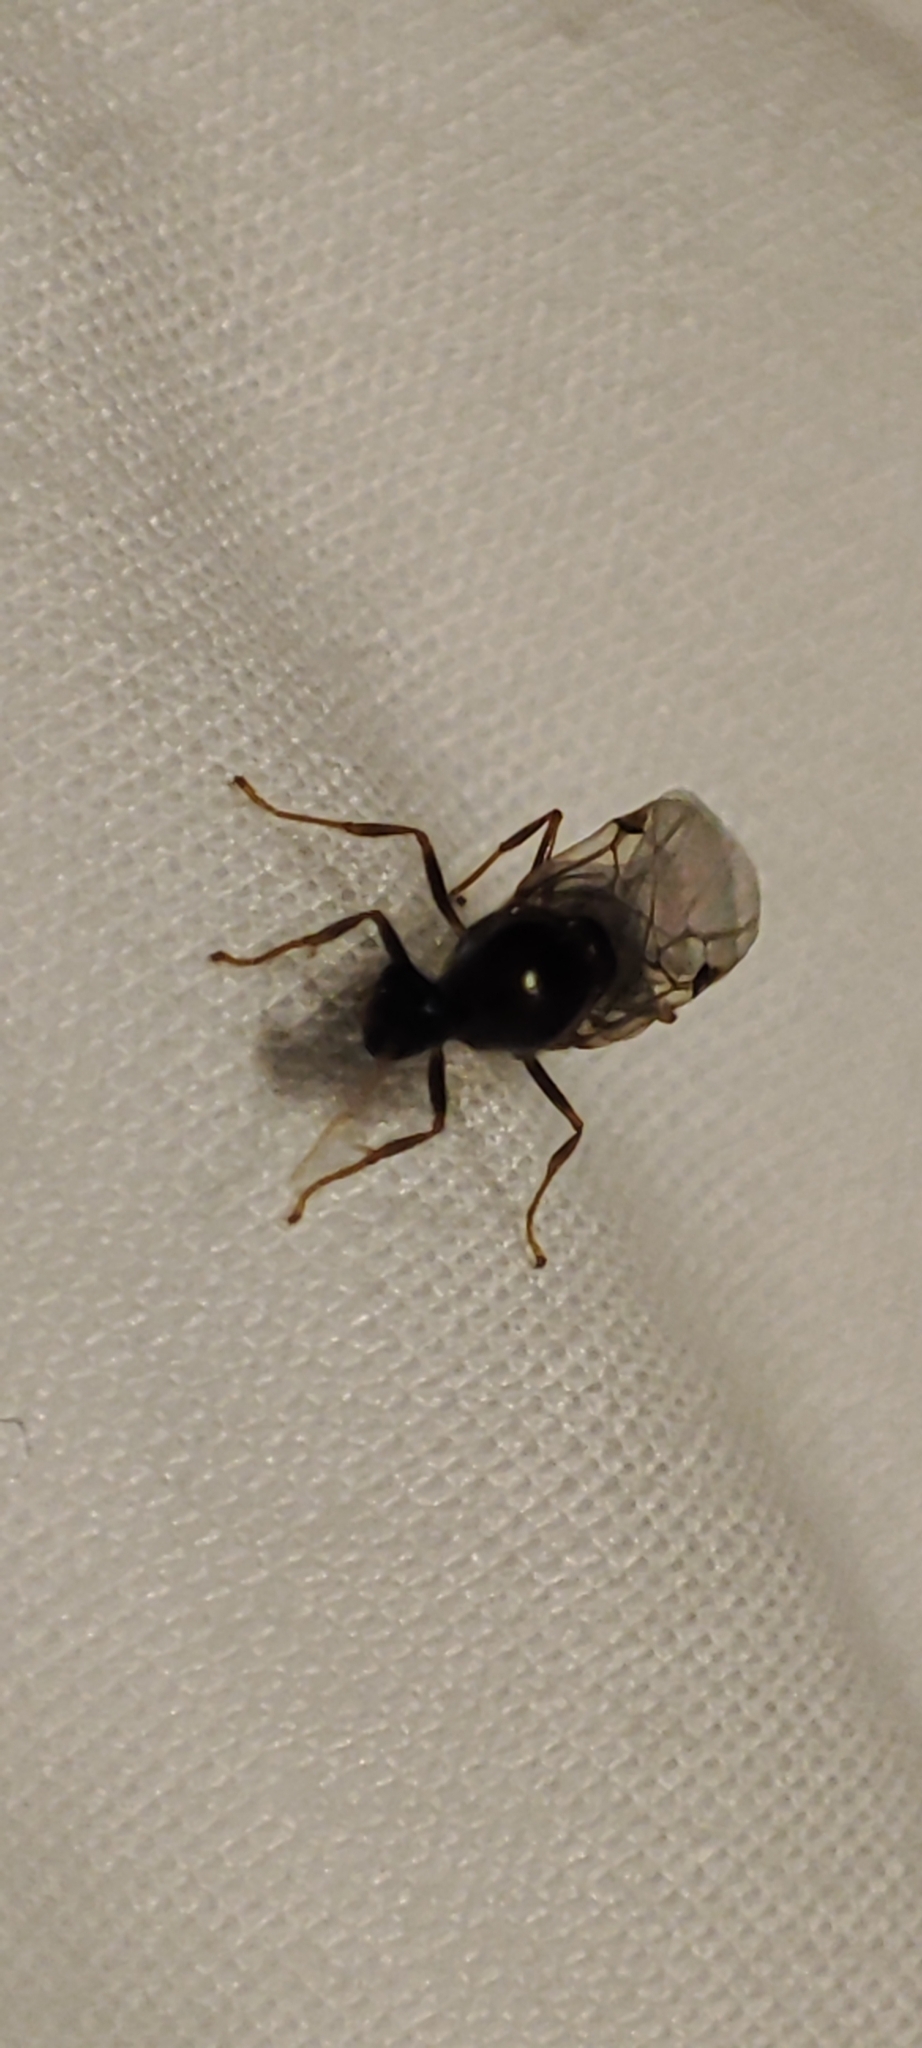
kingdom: Animalia
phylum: Arthropoda
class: Insecta
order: Hymenoptera
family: Formicidae
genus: Solenopsis
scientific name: Solenopsis geminata
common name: Tropical fire ant
